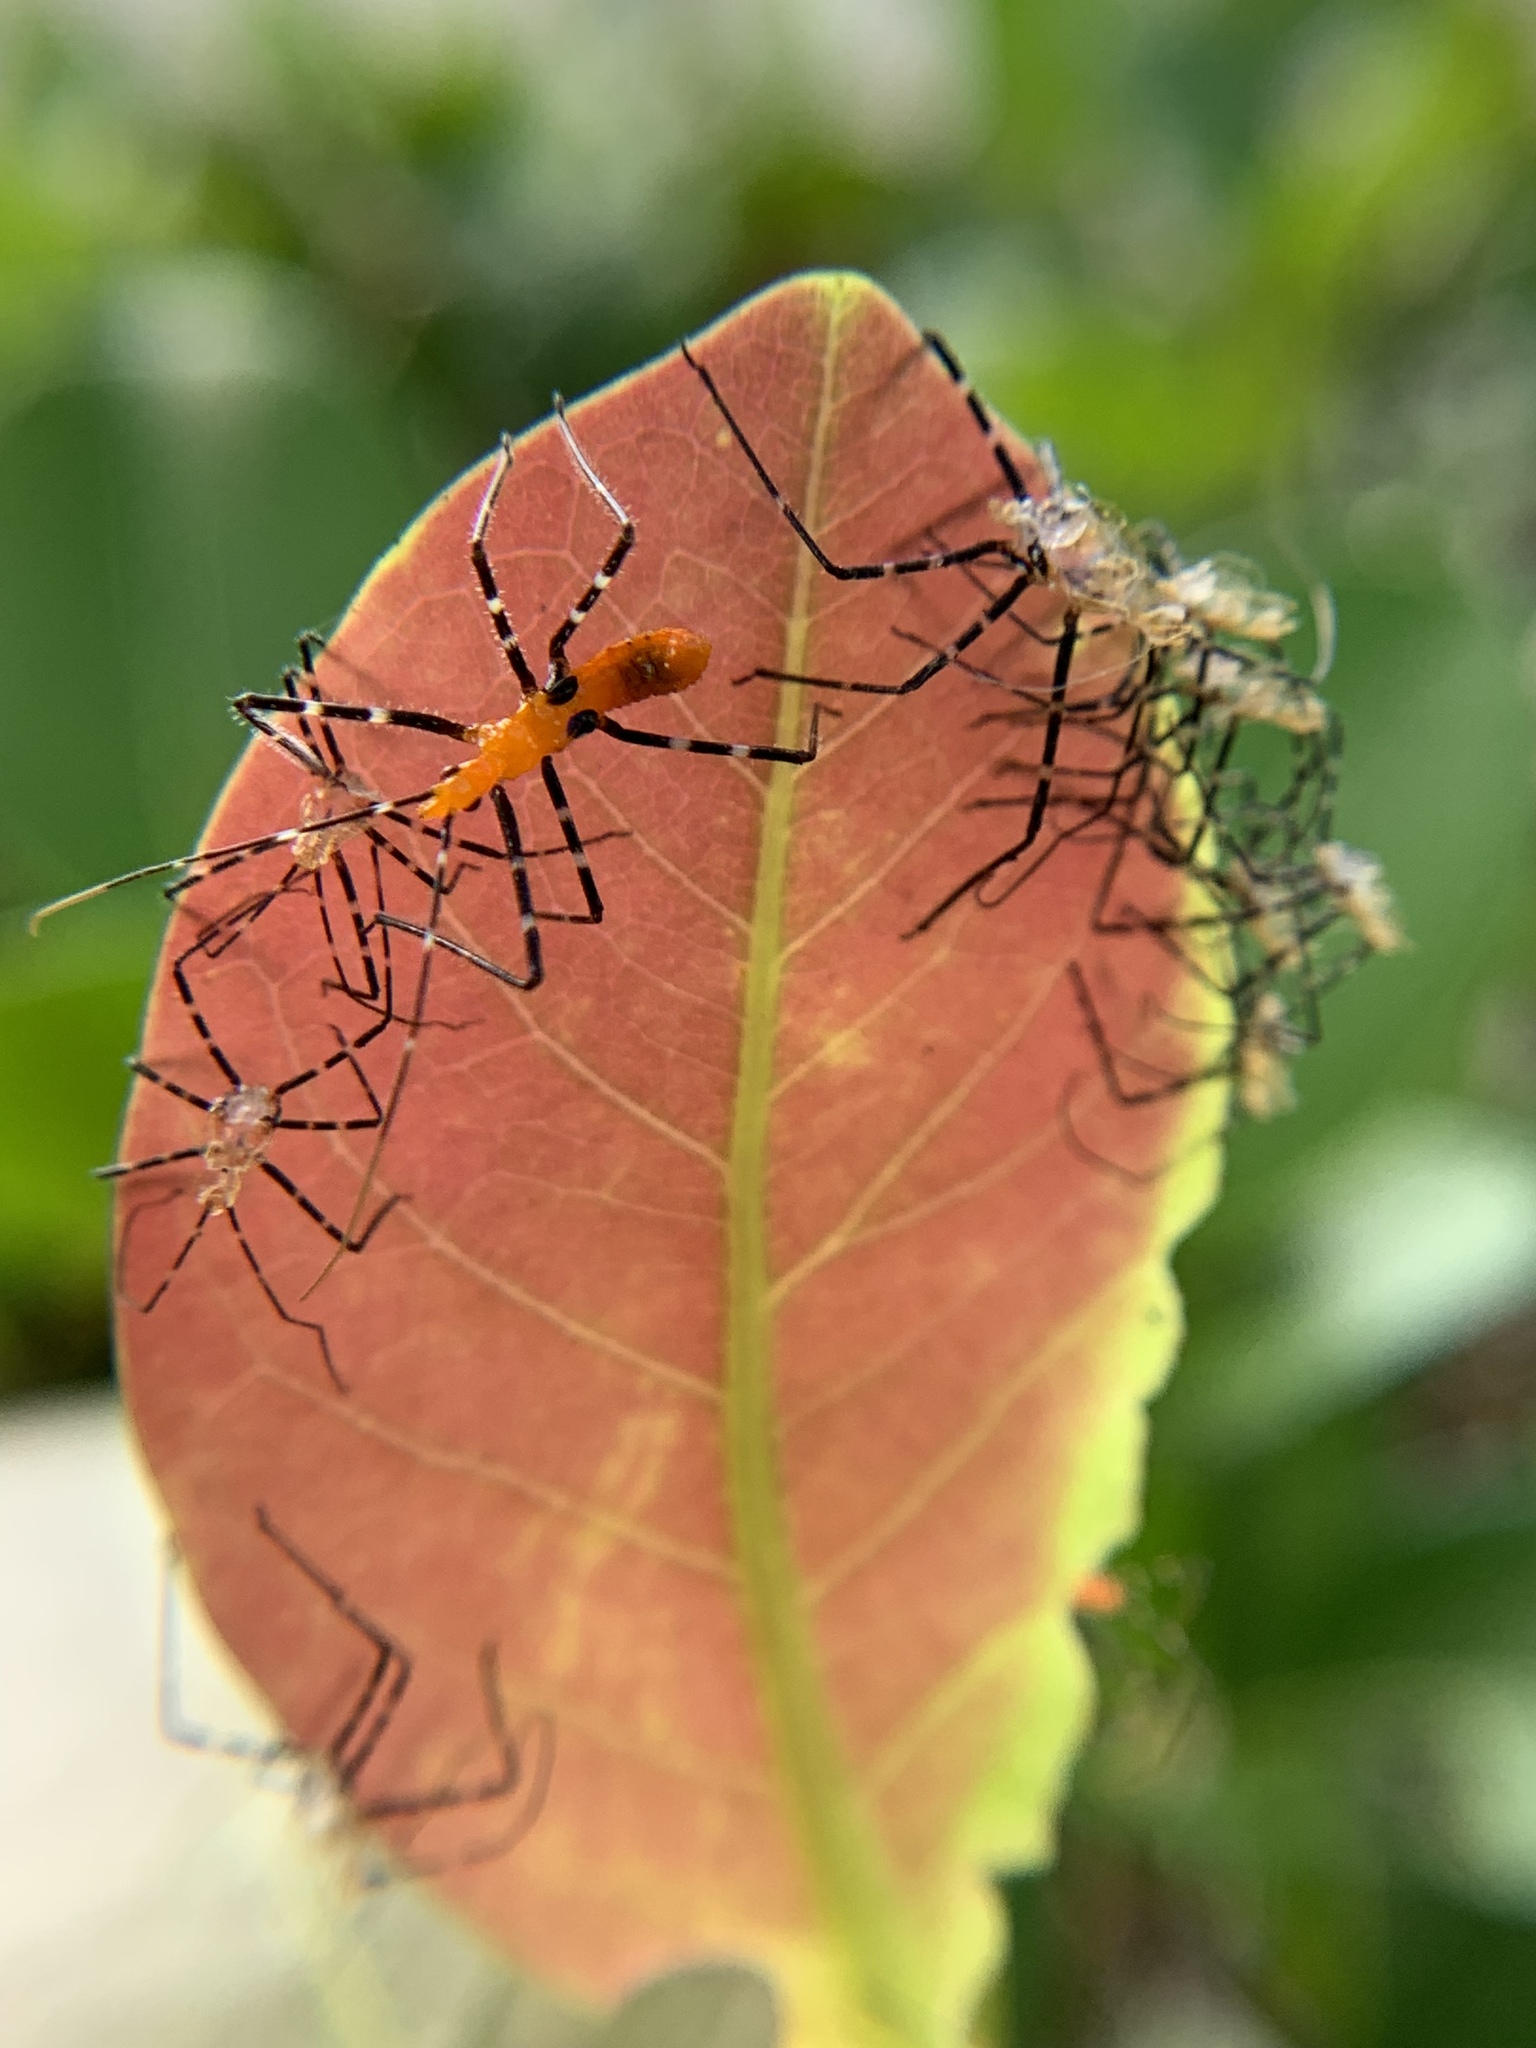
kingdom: Animalia
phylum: Arthropoda
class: Insecta
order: Hemiptera
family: Reduviidae
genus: Zelus
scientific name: Zelus longipes
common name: Milkweed assassin bug
